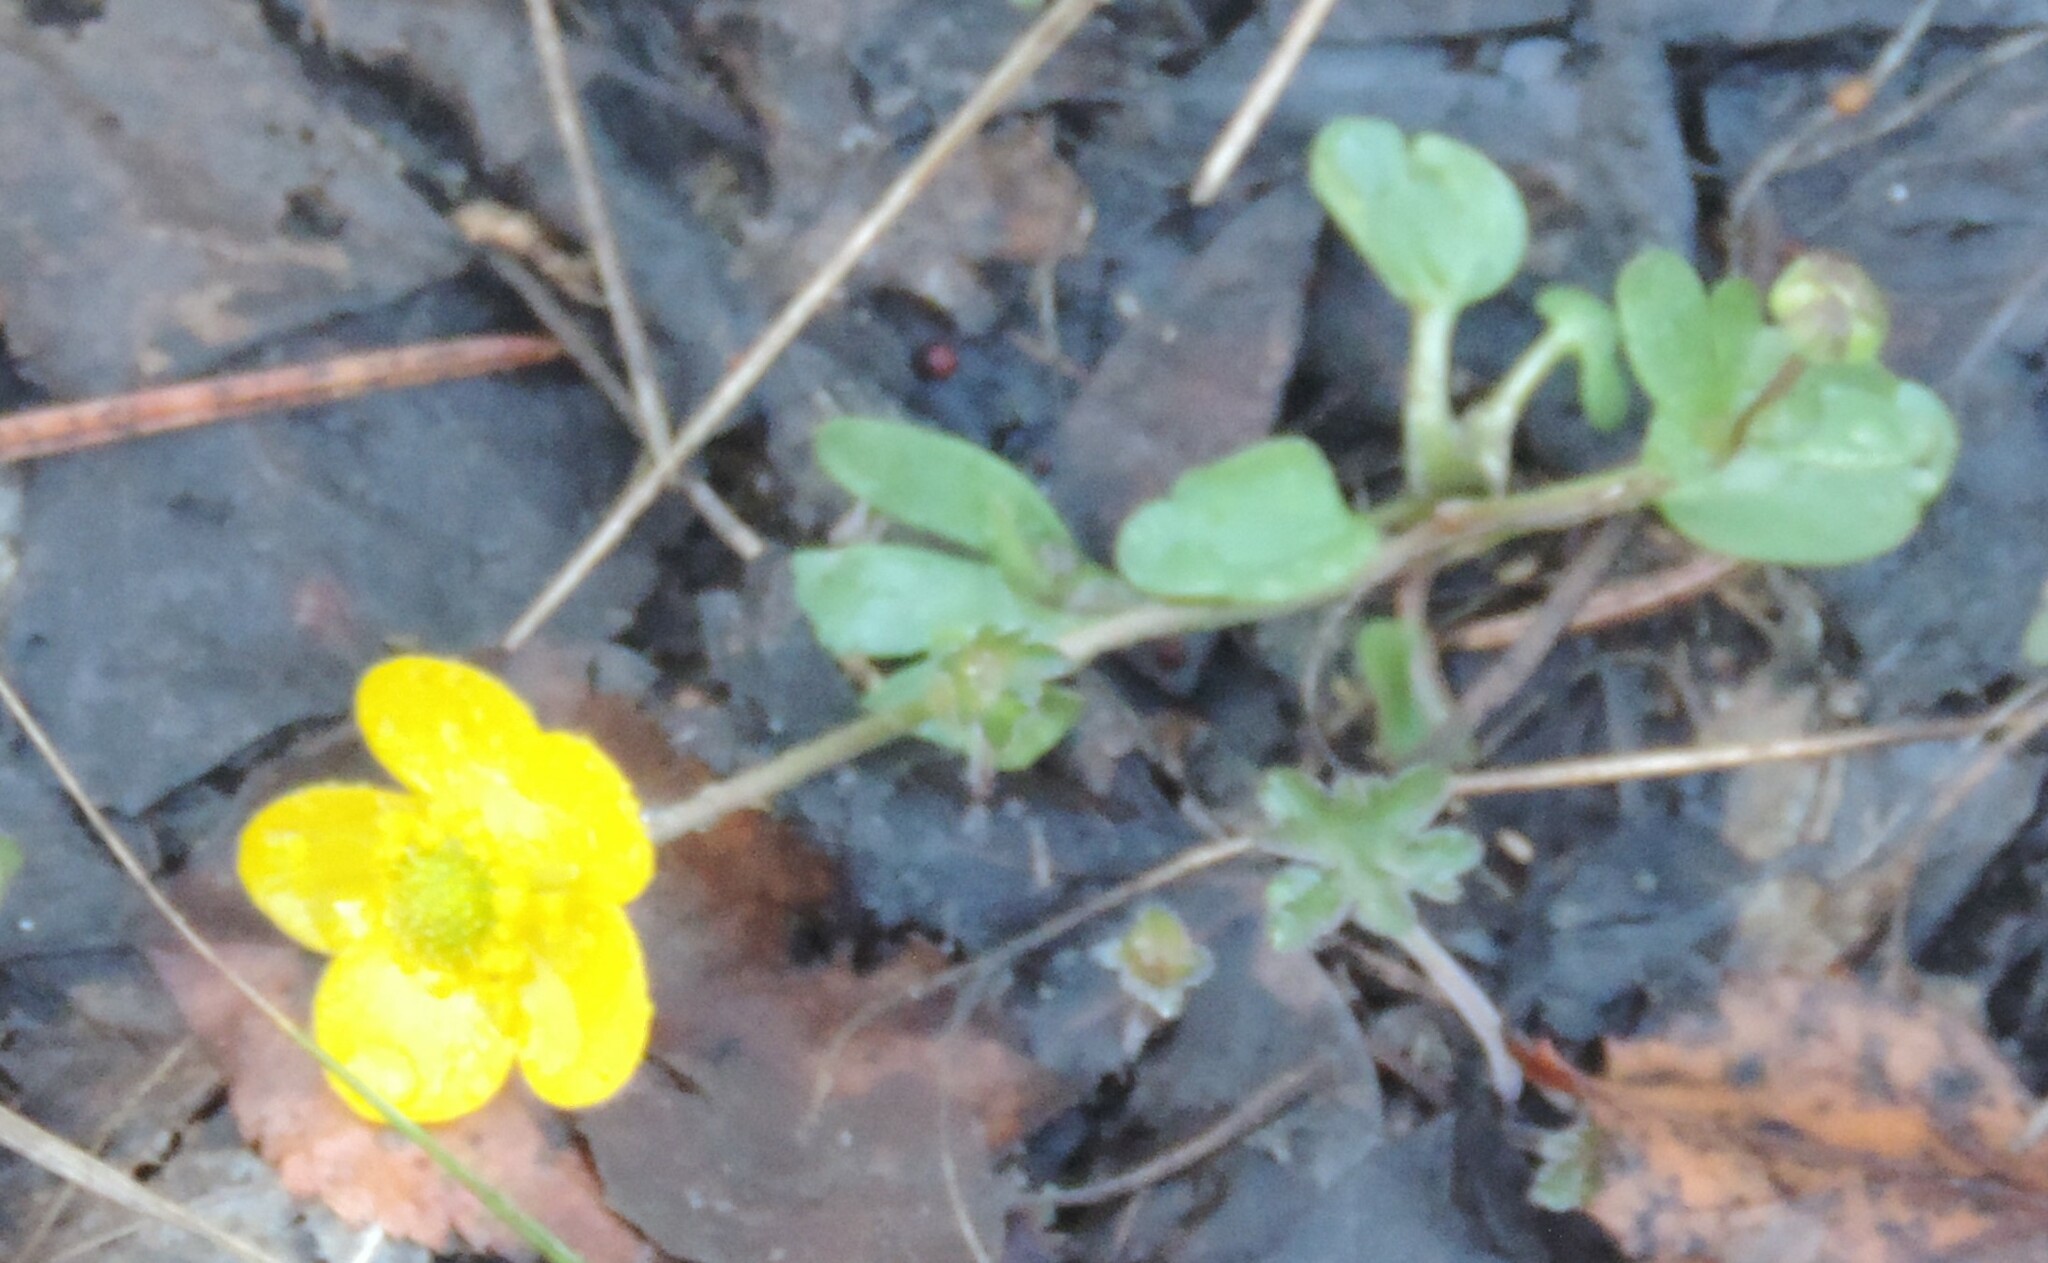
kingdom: Plantae
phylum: Tracheophyta
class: Magnoliopsida
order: Ranunculales
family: Ranunculaceae
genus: Ranunculus
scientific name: Ranunculus glaberrimus
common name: Sagebrush buttercup
